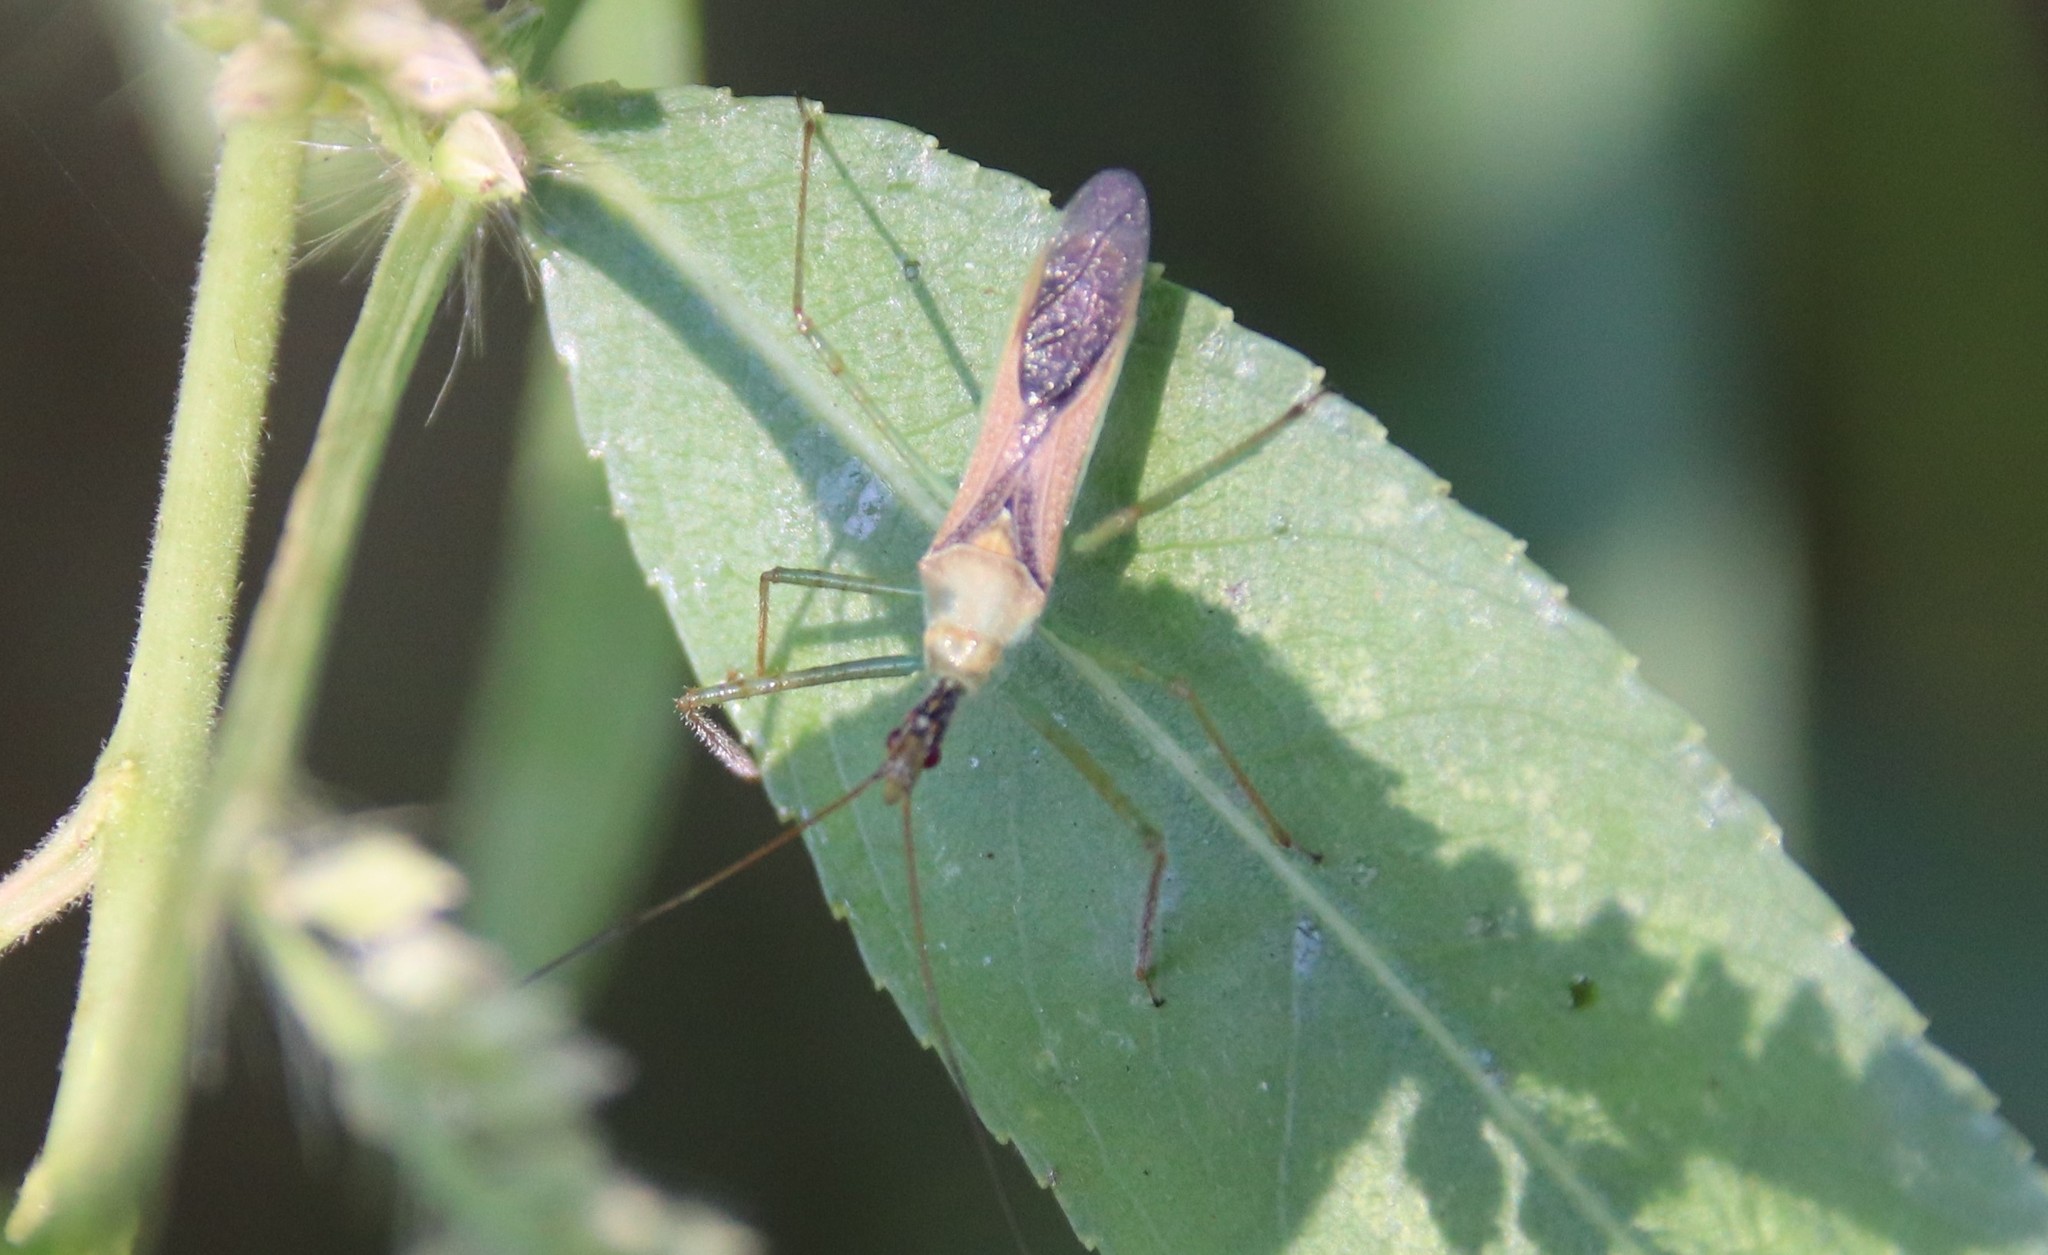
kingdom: Animalia
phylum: Arthropoda
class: Insecta
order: Hemiptera
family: Reduviidae
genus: Zelus
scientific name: Zelus renardii
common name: Assassin bug
